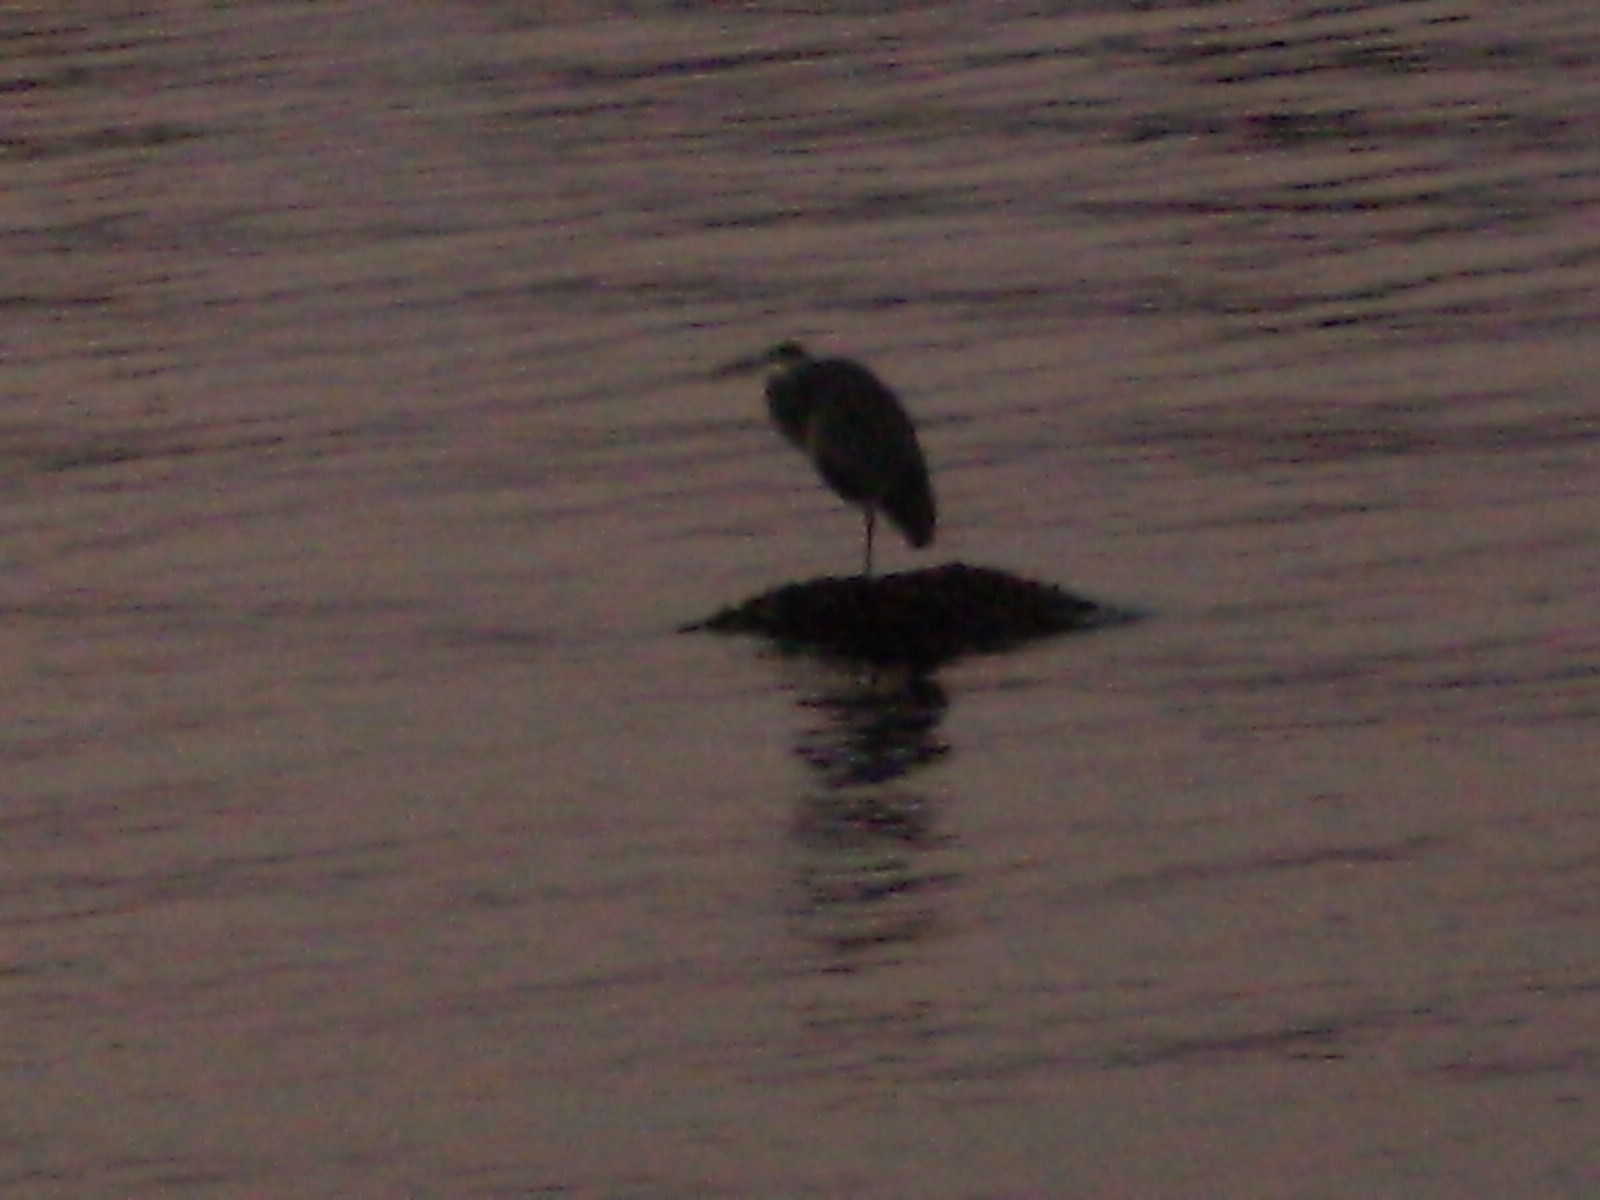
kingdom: Animalia
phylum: Chordata
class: Aves
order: Pelecaniformes
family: Ardeidae
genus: Ardea
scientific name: Ardea herodias
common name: Great blue heron
